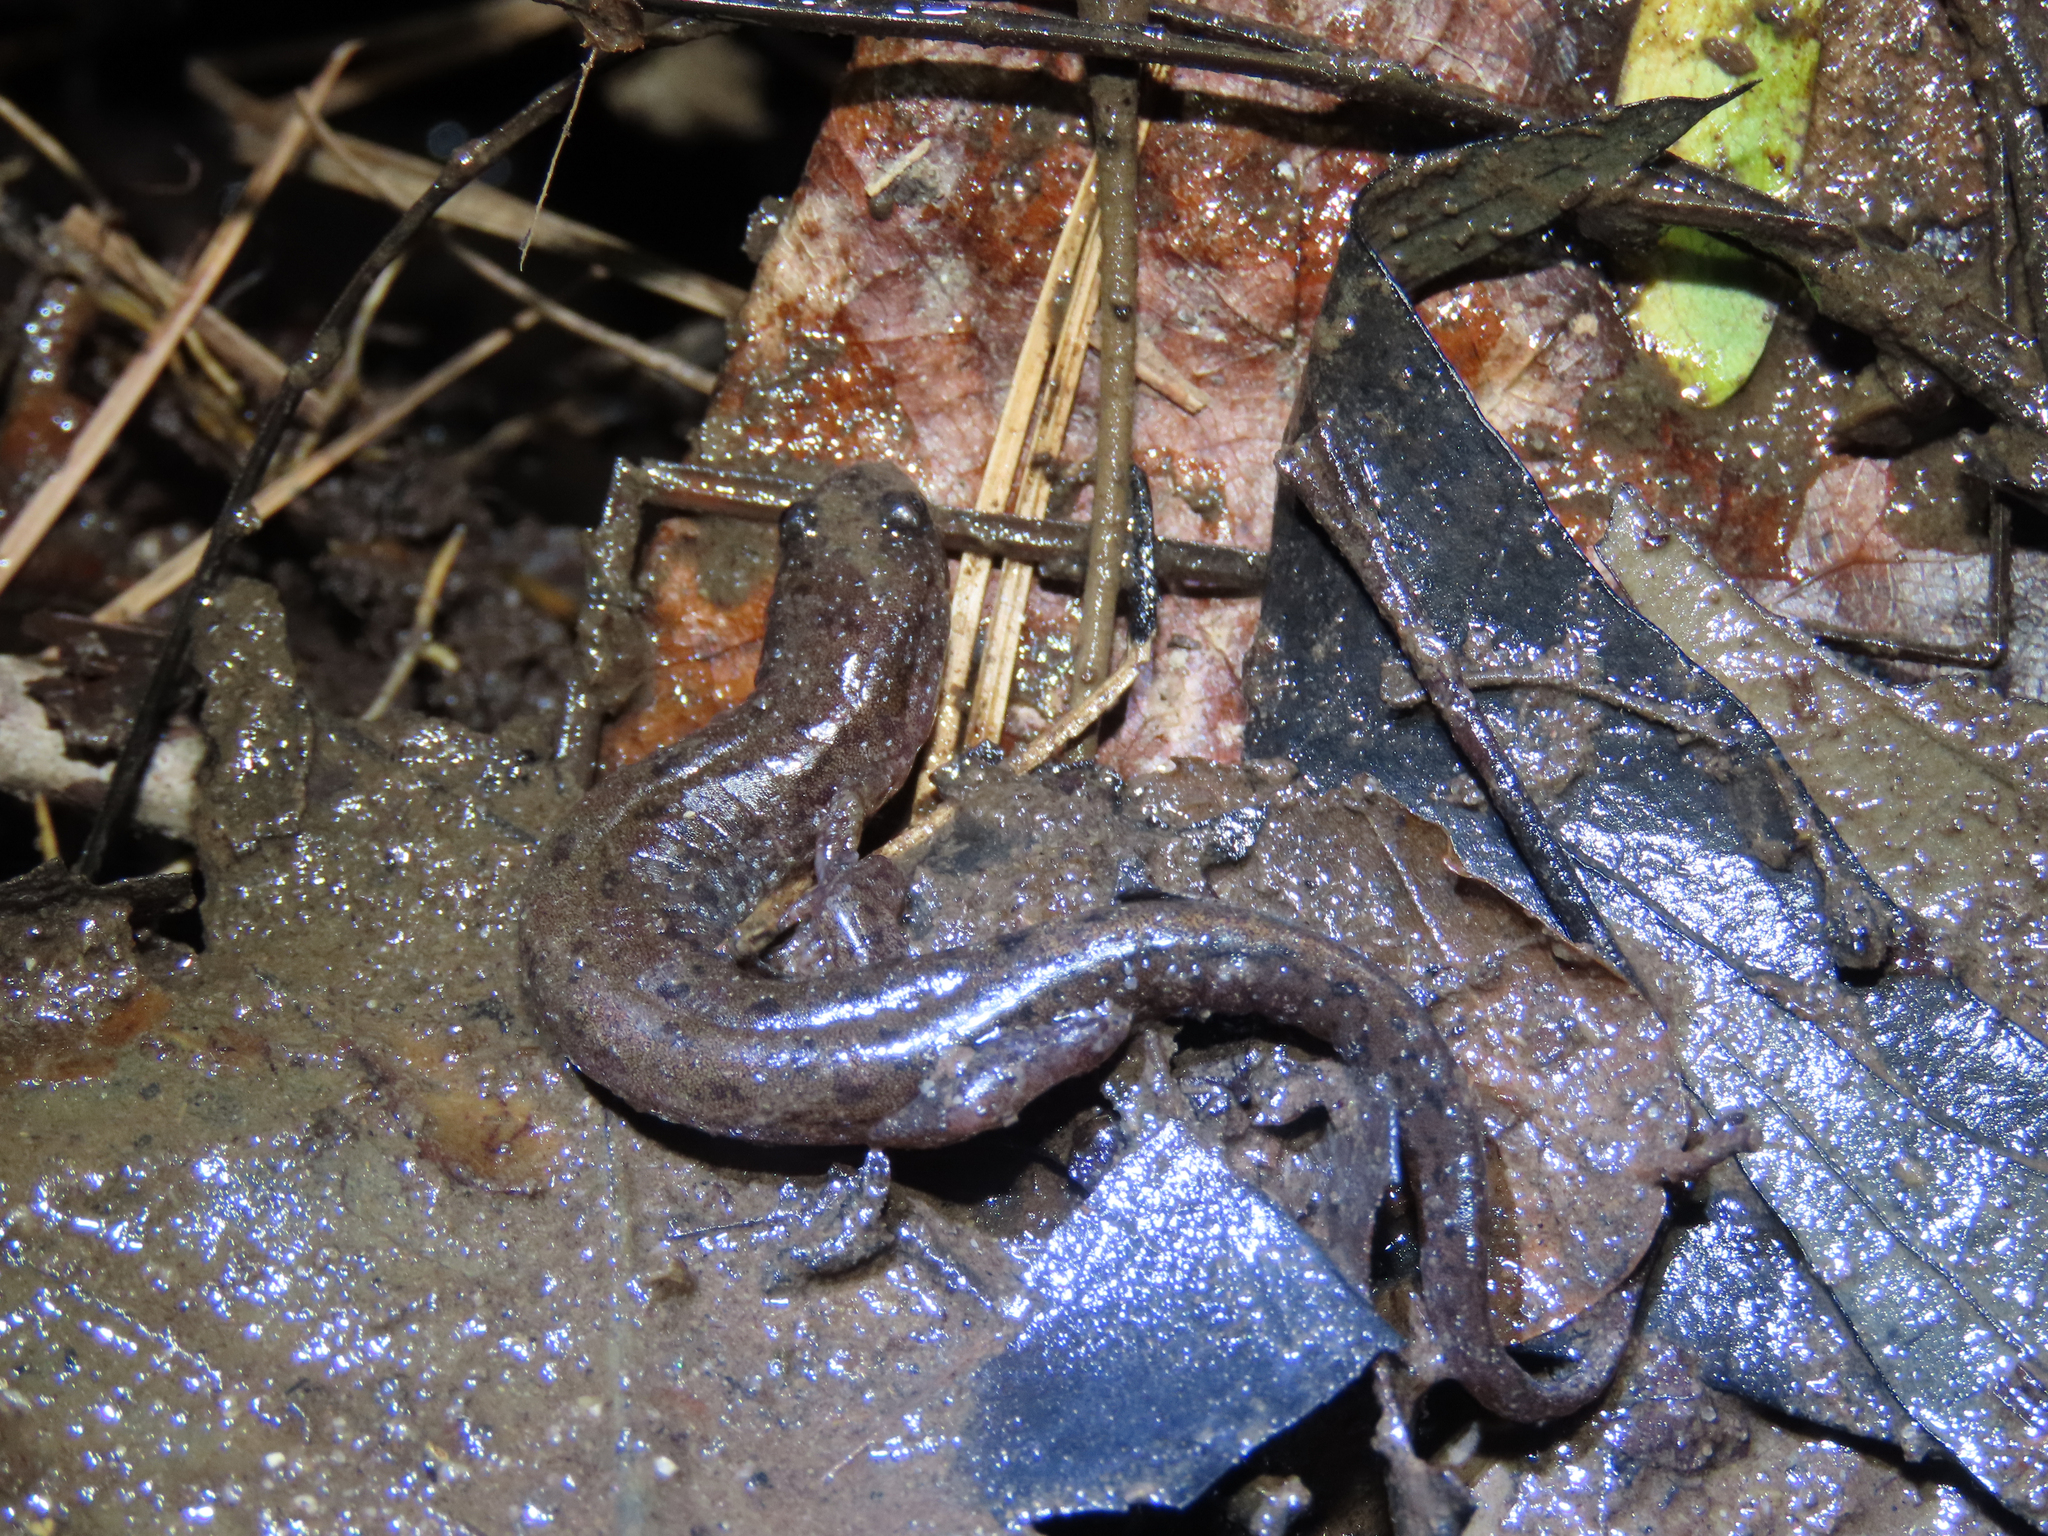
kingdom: Animalia
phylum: Chordata
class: Amphibia
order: Caudata
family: Plethodontidae
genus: Desmognathus
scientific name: Desmognathus fuscus
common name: Northern dusky salamander
